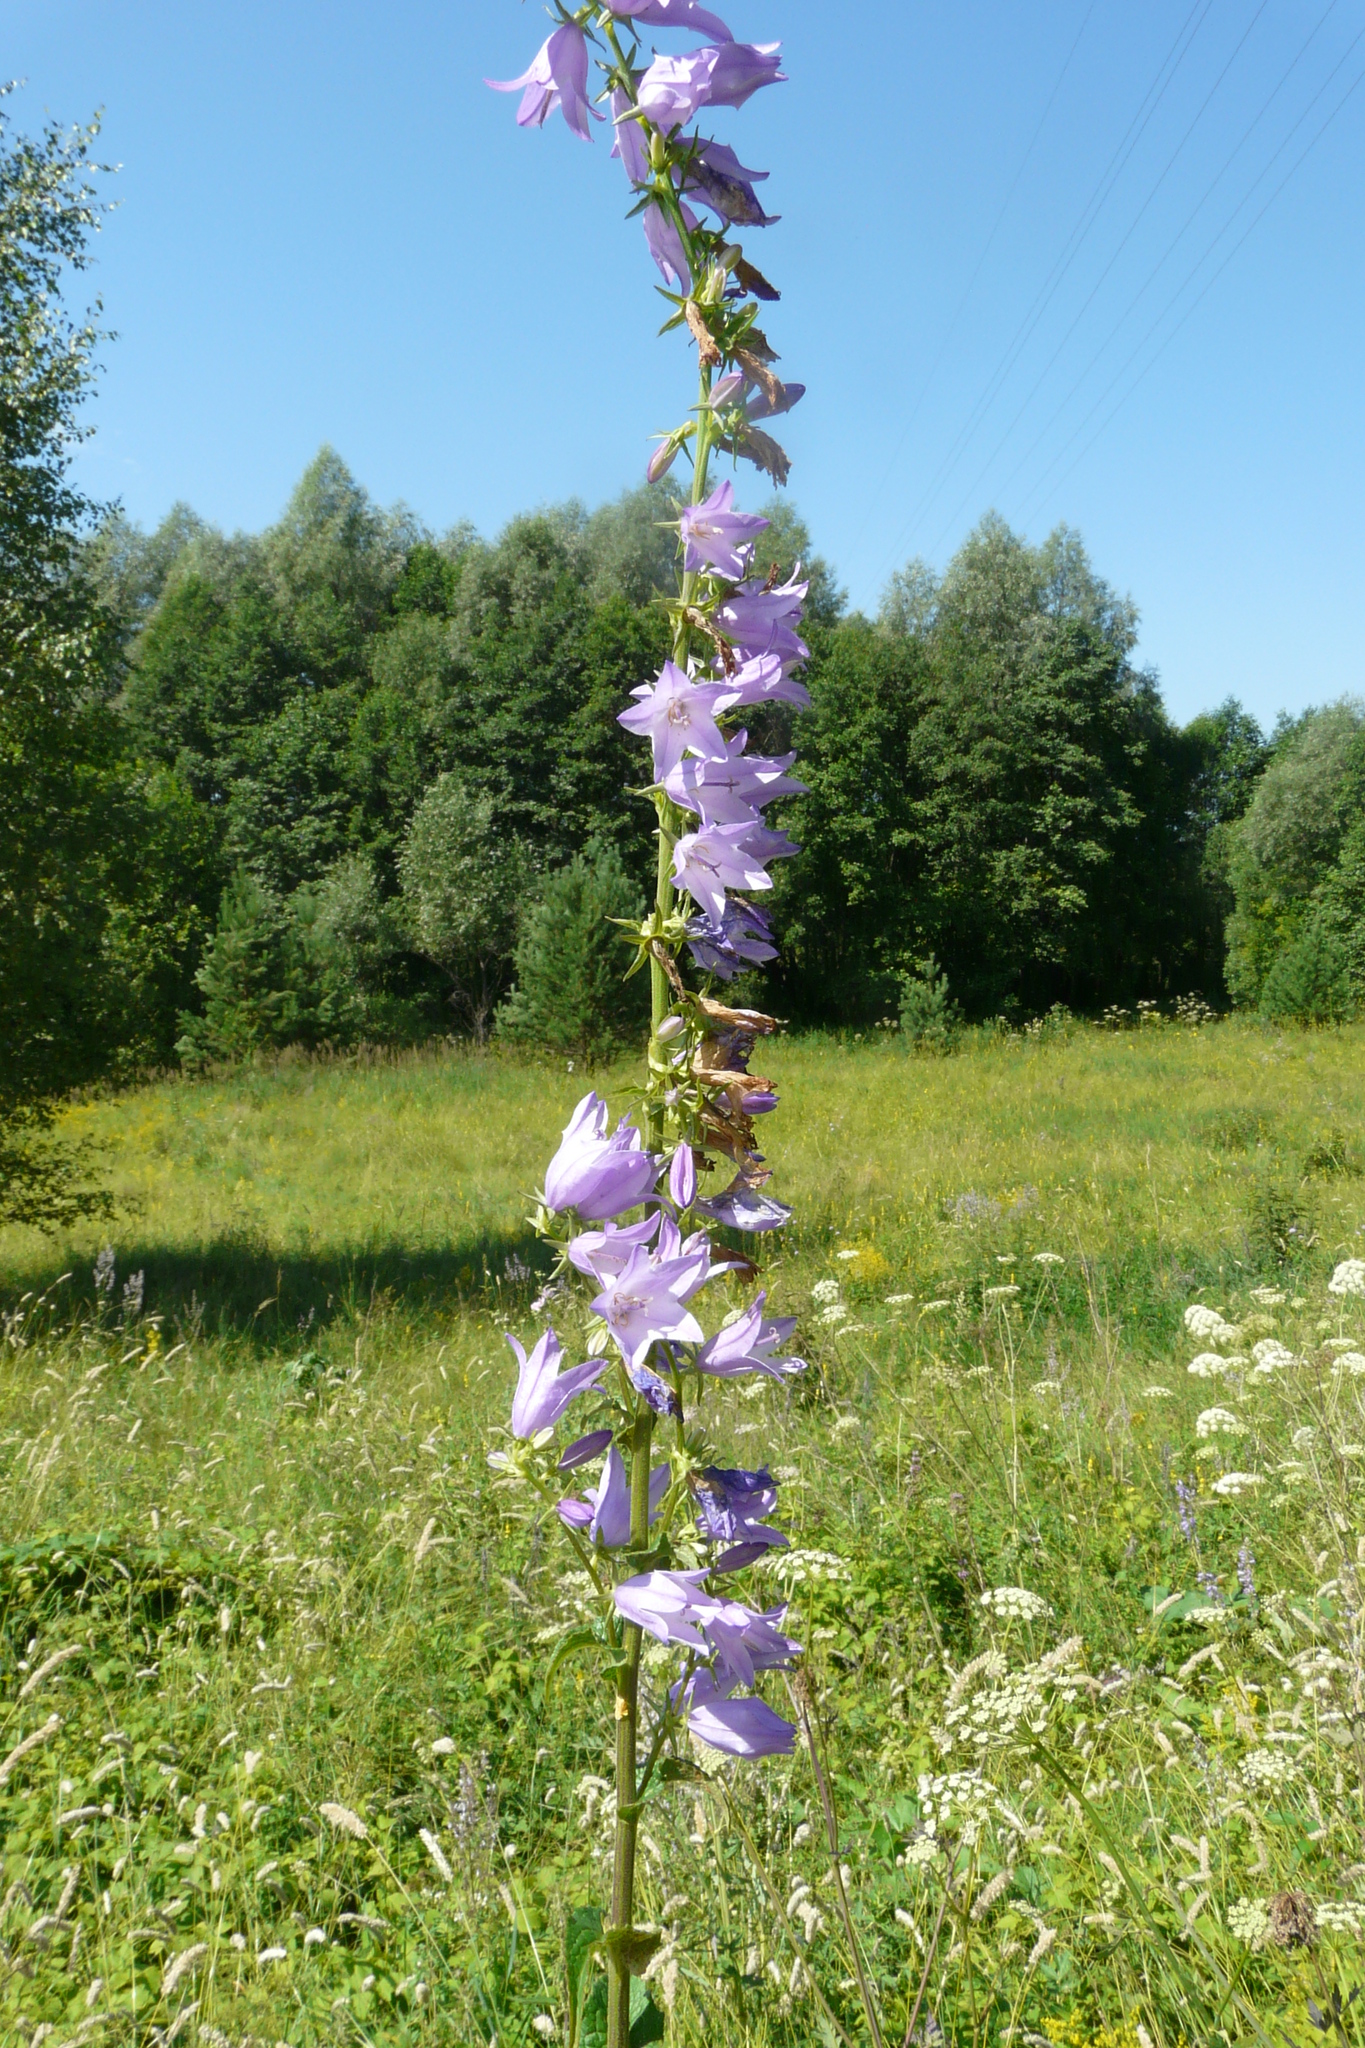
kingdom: Plantae
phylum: Tracheophyta
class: Magnoliopsida
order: Asterales
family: Campanulaceae
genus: Campanula
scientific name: Campanula bononiensis
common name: Pale bellflower
